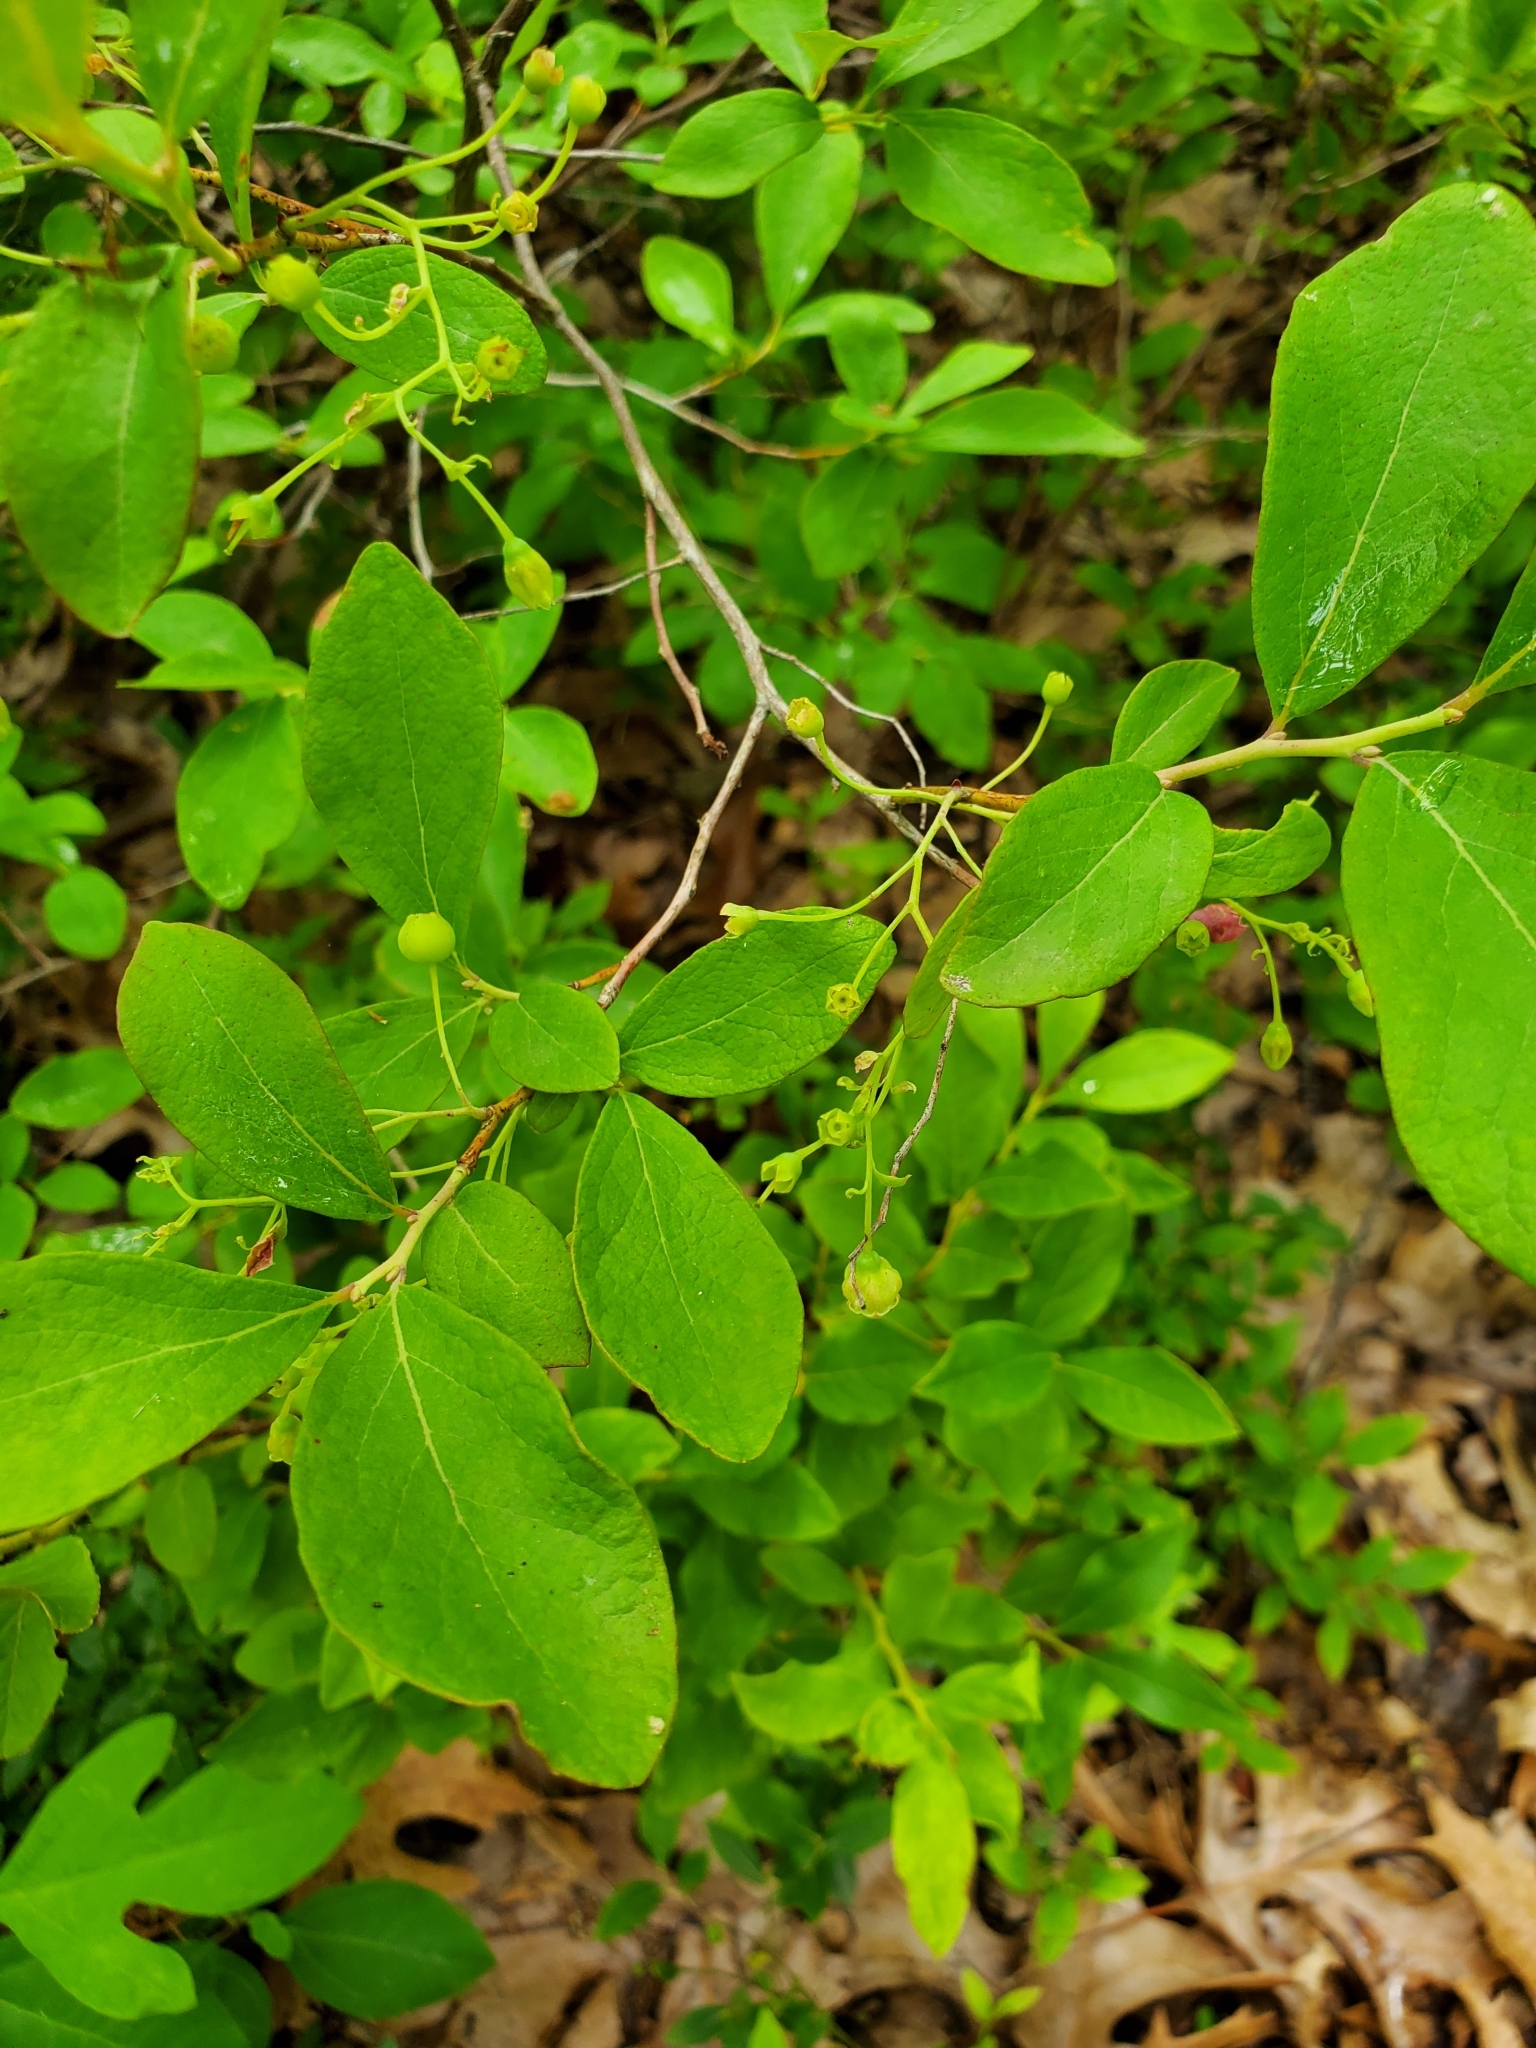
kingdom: Plantae
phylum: Tracheophyta
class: Magnoliopsida
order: Ericales
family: Ericaceae
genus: Gaylussacia
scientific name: Gaylussacia frondosa
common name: Dangleberry
